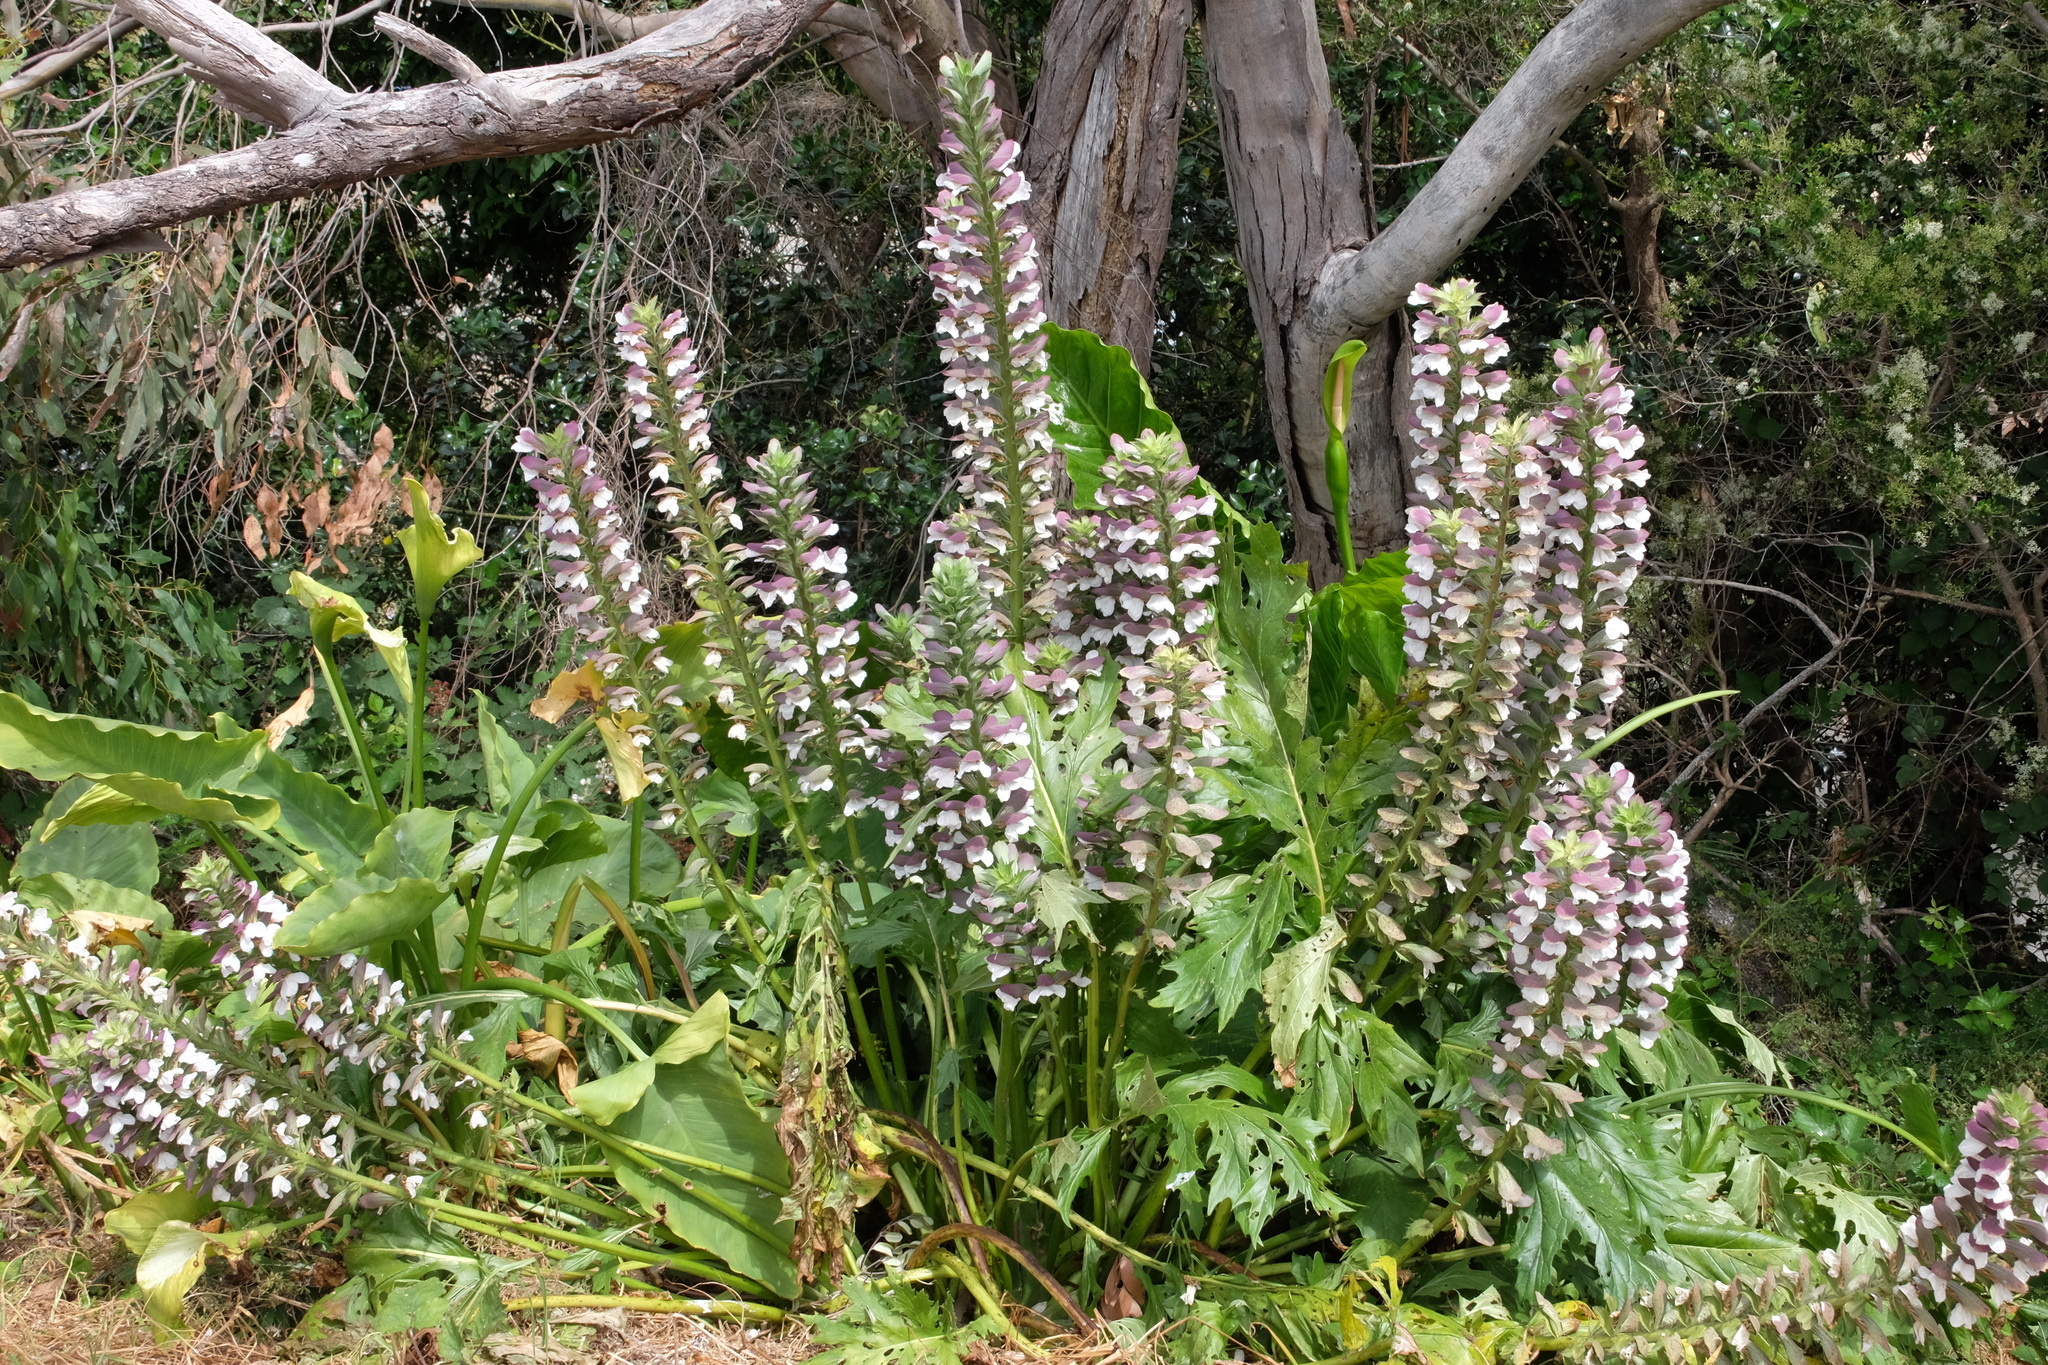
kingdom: Plantae
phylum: Tracheophyta
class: Magnoliopsida
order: Lamiales
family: Acanthaceae
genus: Acanthus
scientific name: Acanthus mollis
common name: Bear's-breech
